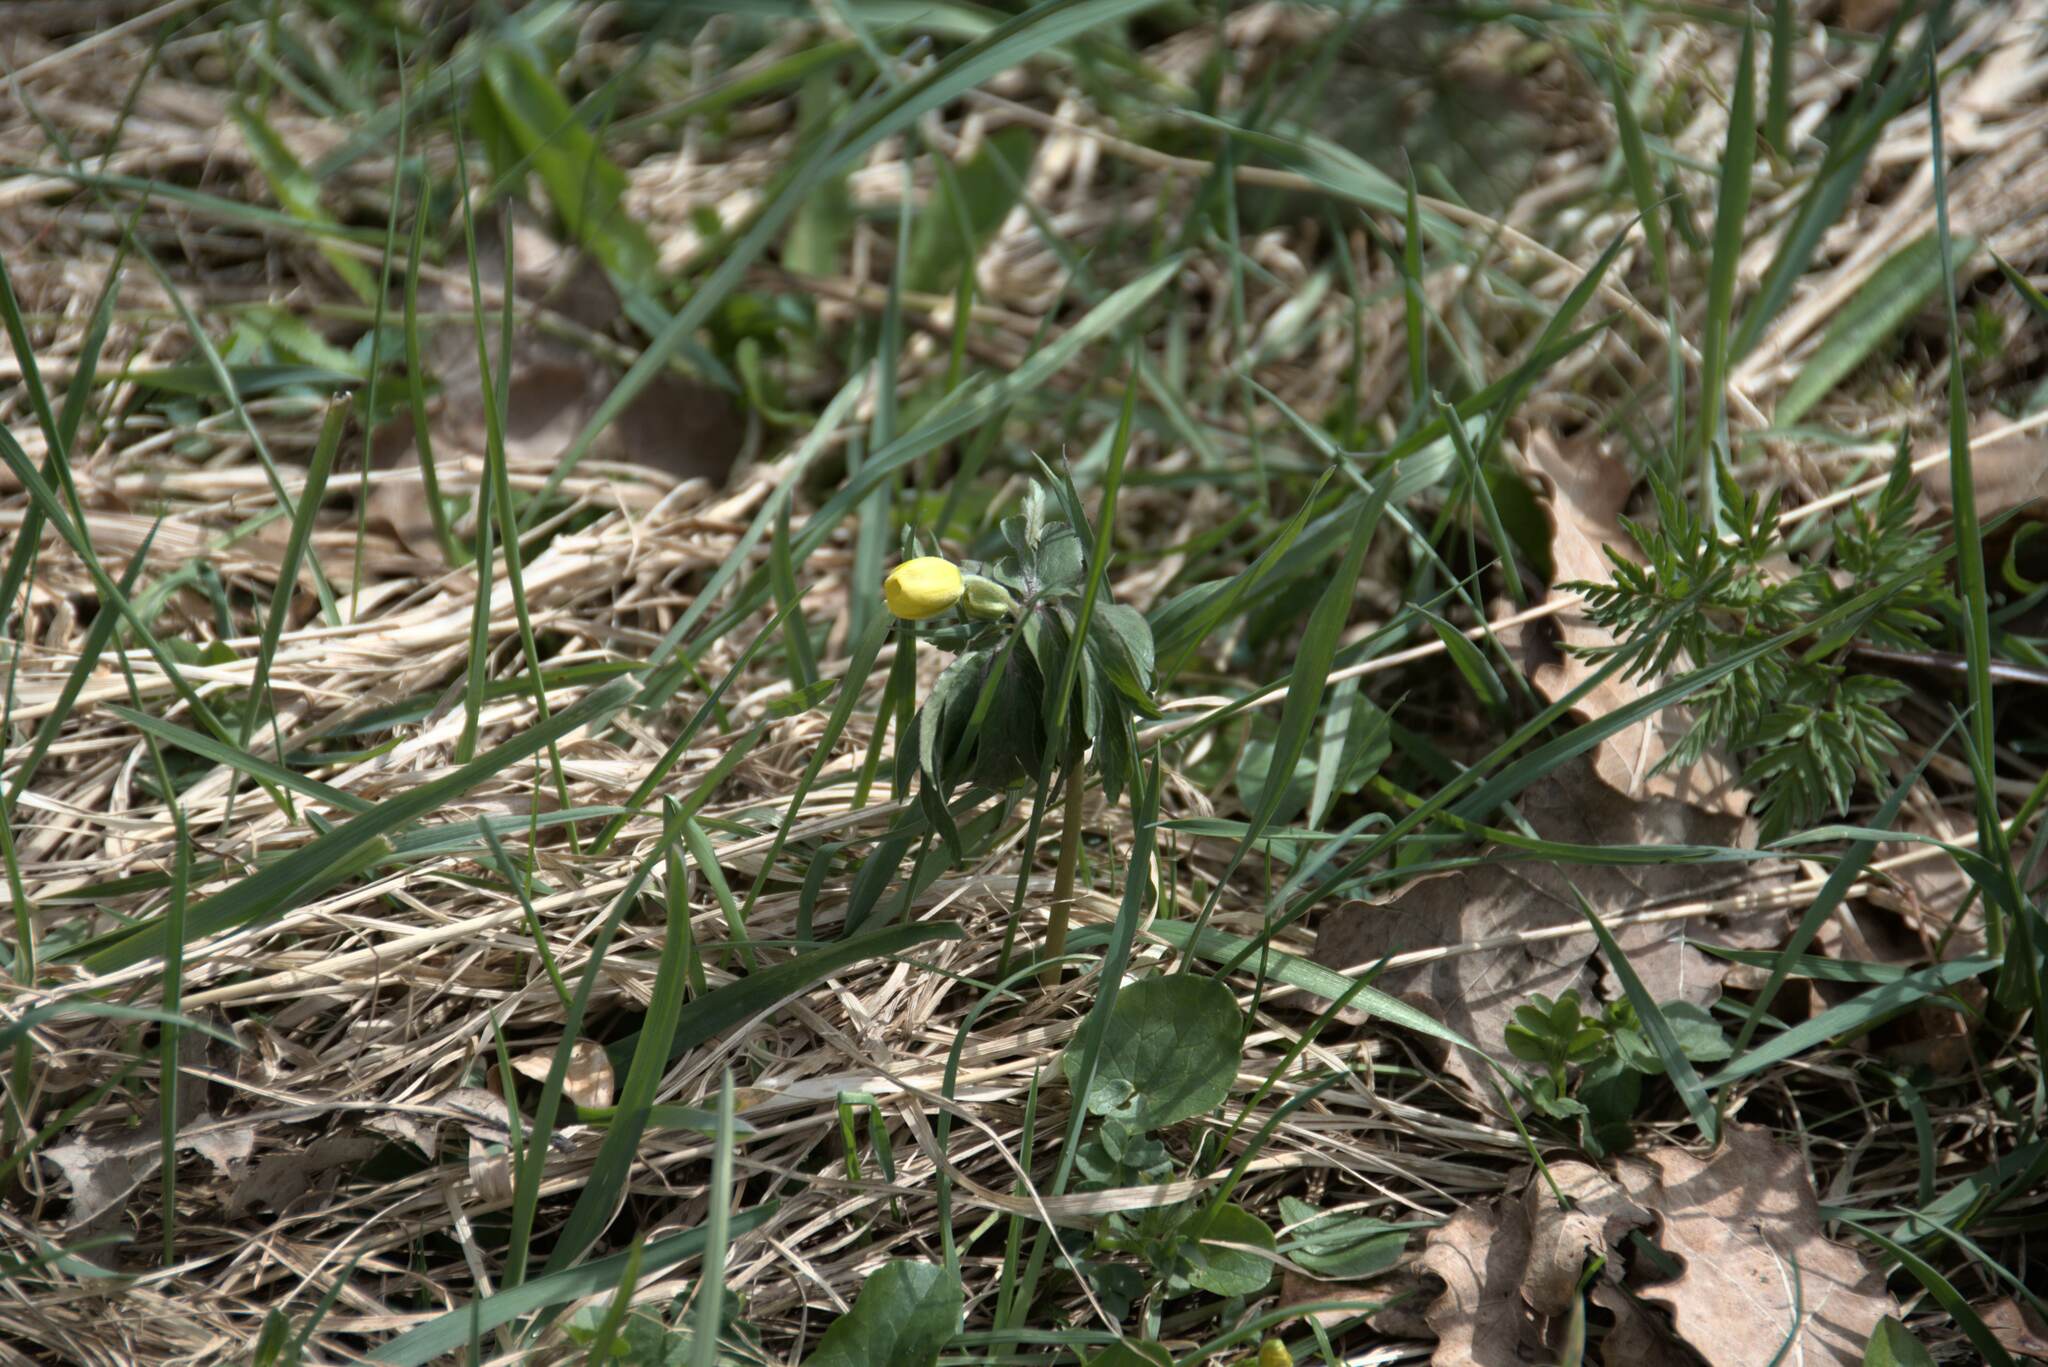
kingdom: Plantae
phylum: Tracheophyta
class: Magnoliopsida
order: Ranunculales
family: Ranunculaceae
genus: Anemone
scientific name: Anemone ranunculoides
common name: Yellow anemone
